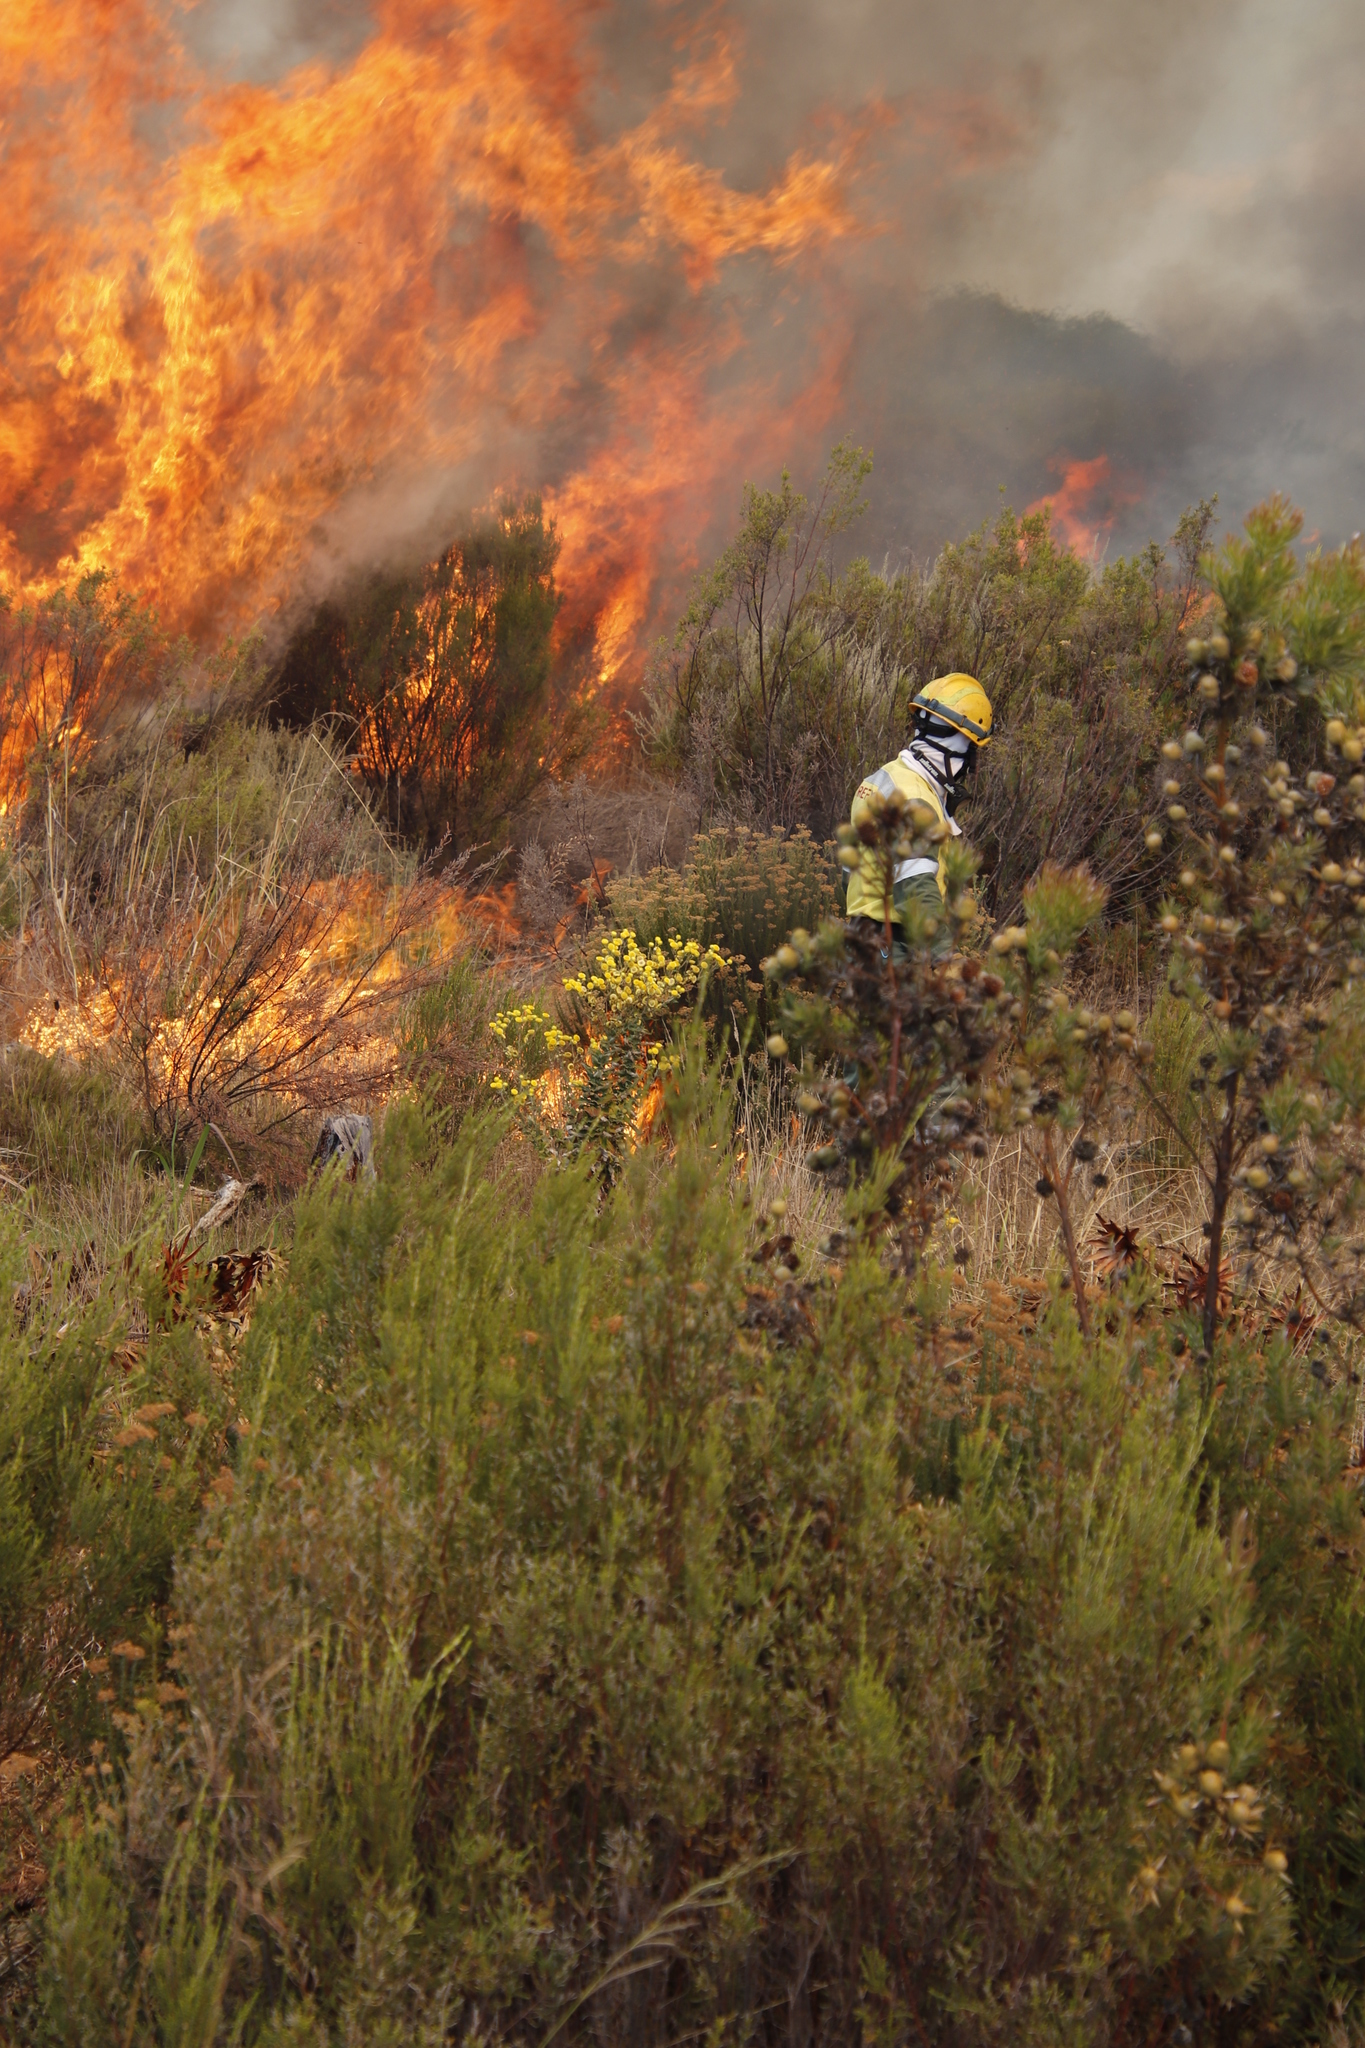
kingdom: Plantae
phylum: Tracheophyta
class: Magnoliopsida
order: Proteales
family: Proteaceae
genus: Leucadendron
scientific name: Leucadendron floridum
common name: Flats conebush
